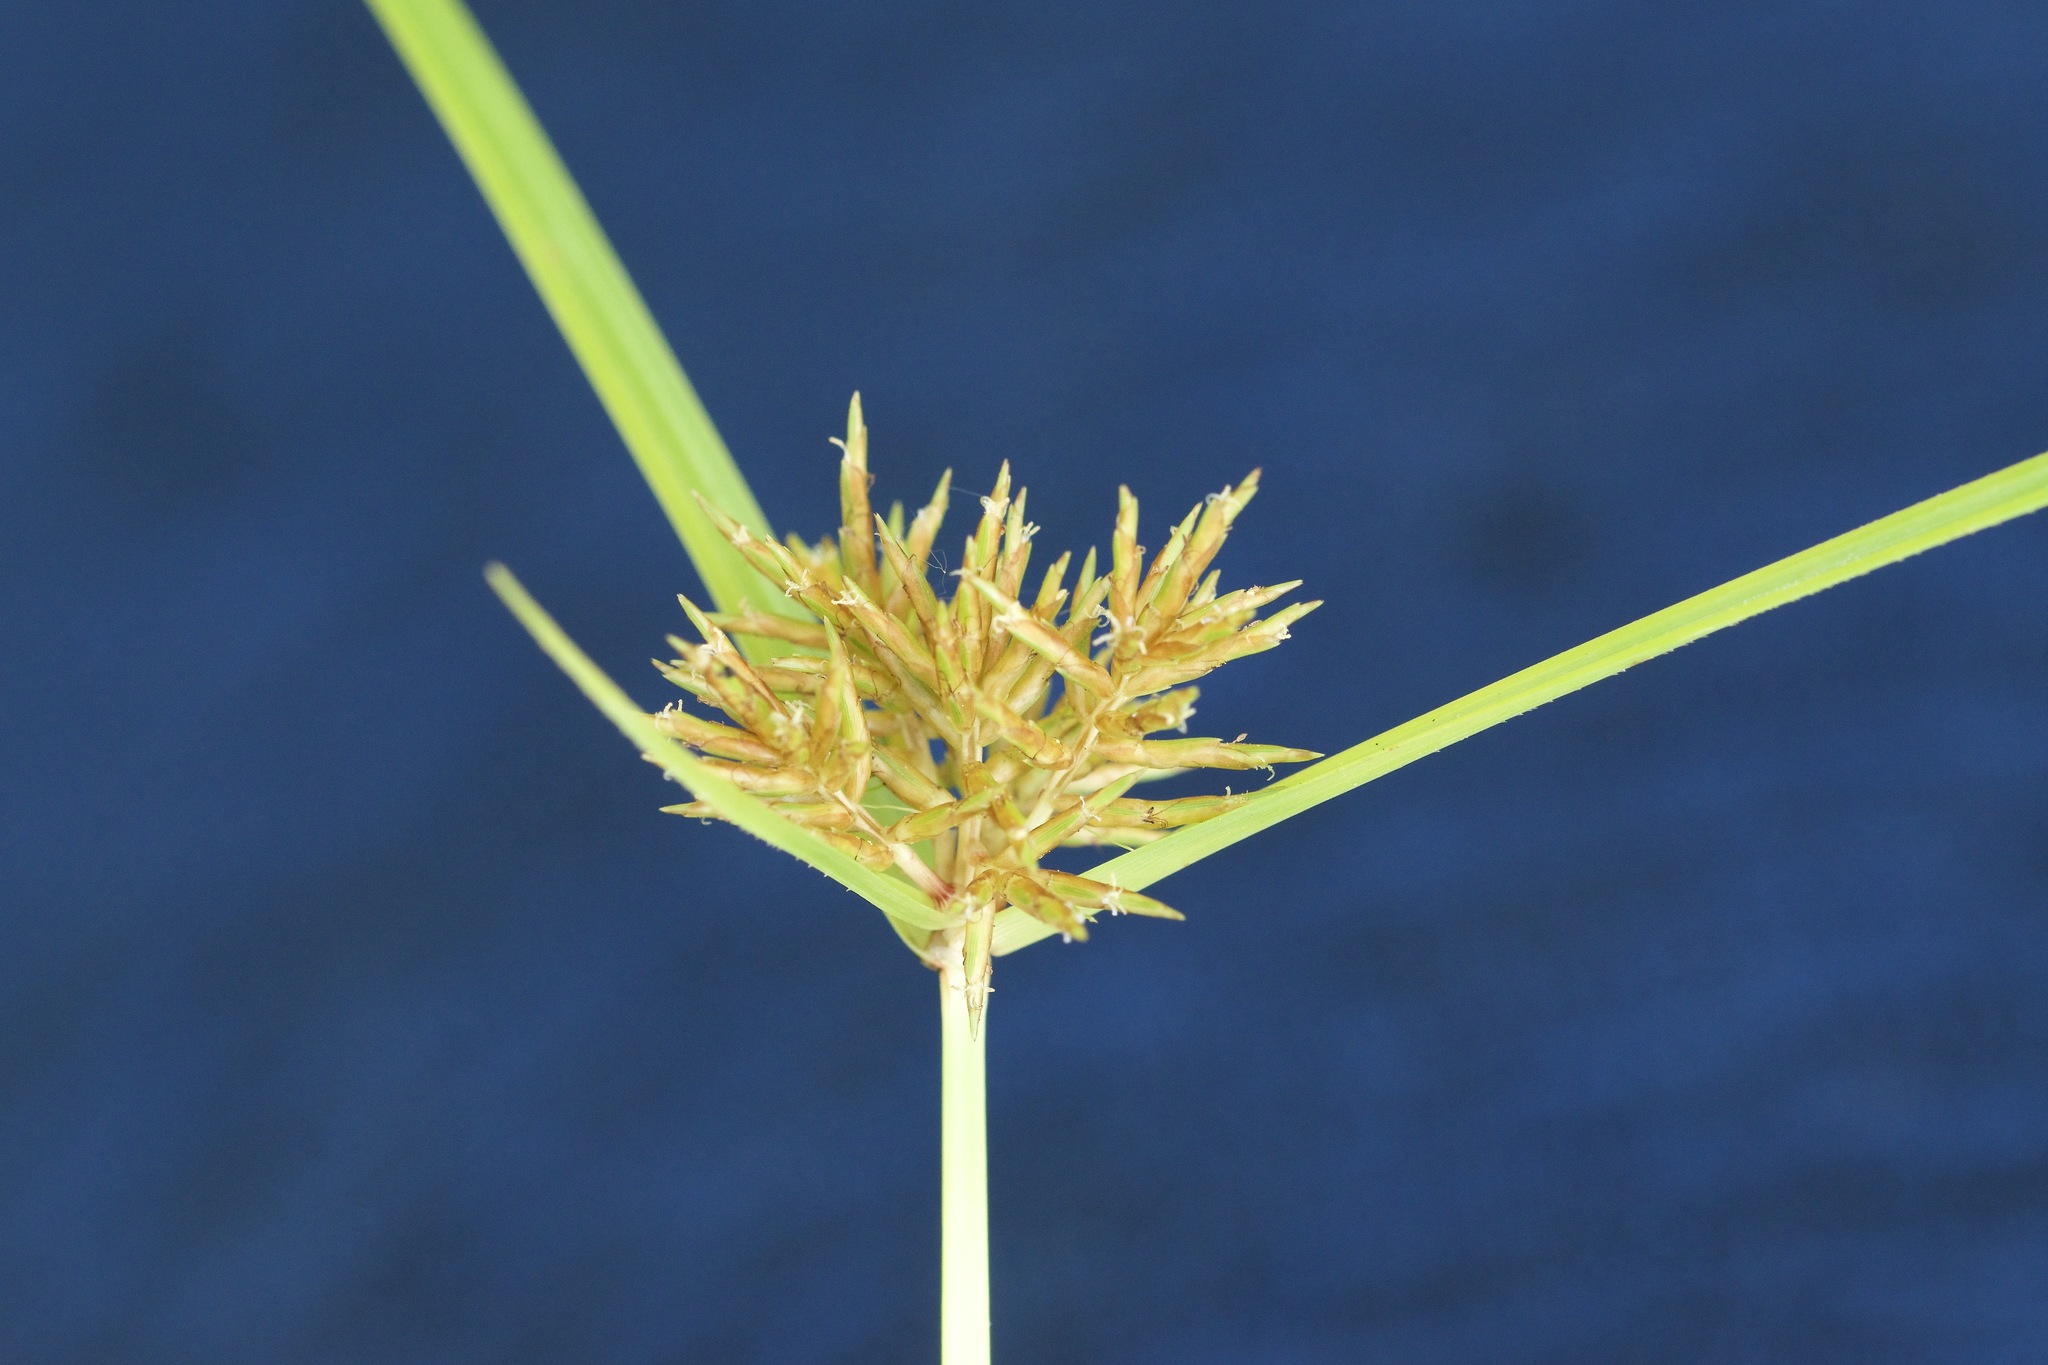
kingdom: Plantae
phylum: Tracheophyta
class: Liliopsida
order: Poales
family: Cyperaceae
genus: Cyperus
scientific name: Cyperus odoratus
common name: Fragrant flatsedge
